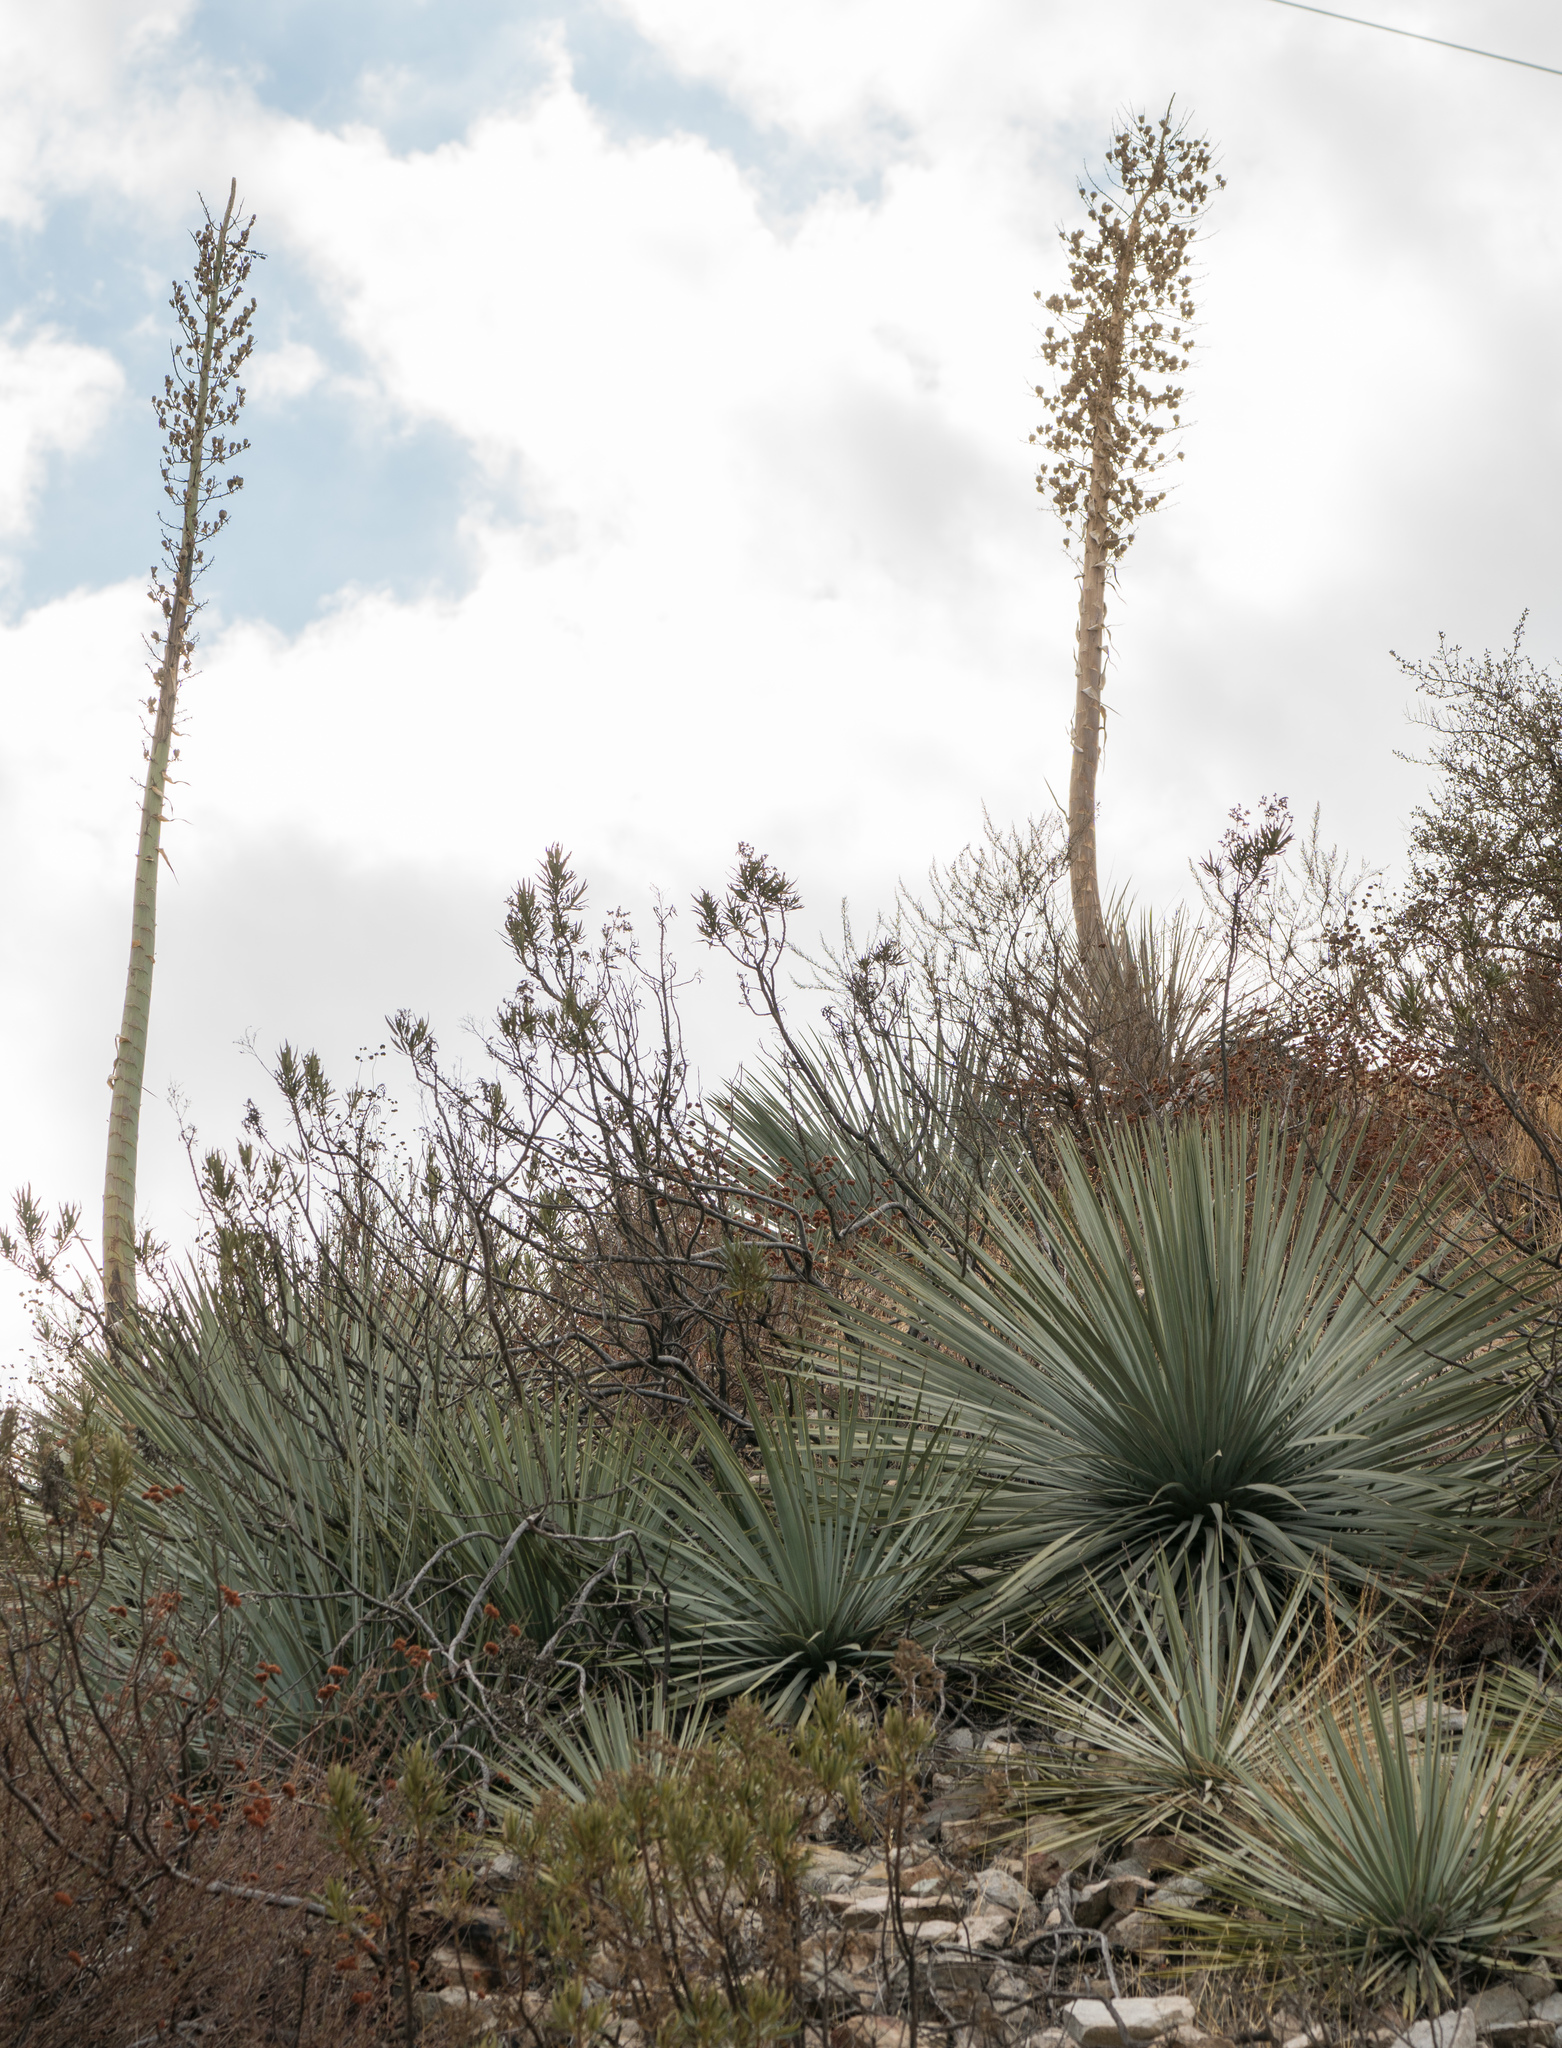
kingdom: Plantae
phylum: Tracheophyta
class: Liliopsida
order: Asparagales
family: Asparagaceae
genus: Hesperoyucca
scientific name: Hesperoyucca whipplei
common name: Our lord's-candle
